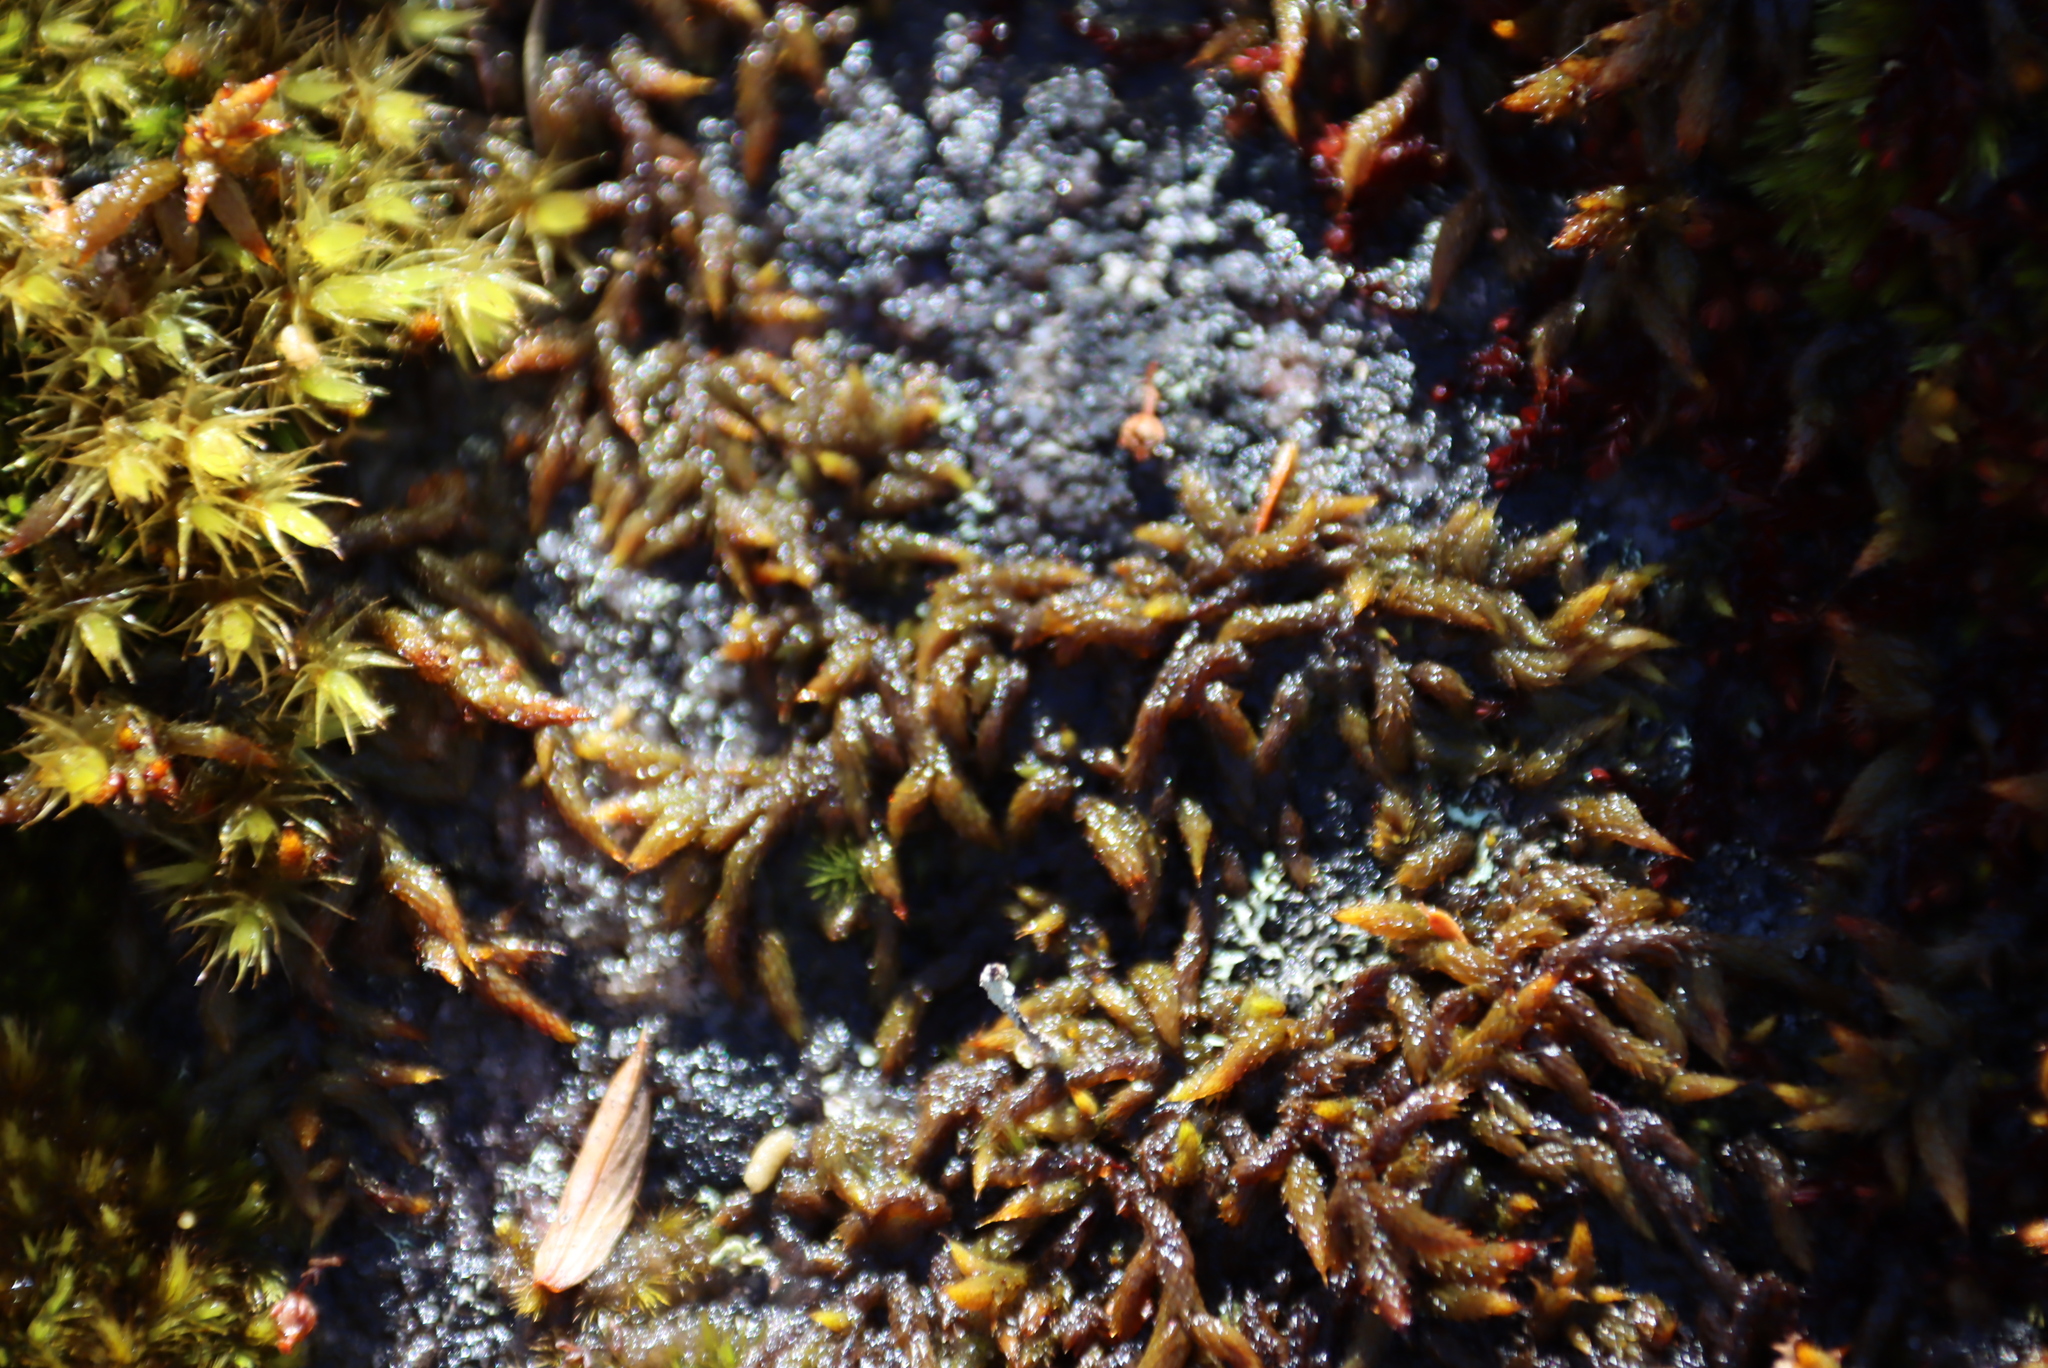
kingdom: Plantae
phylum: Bryophyta
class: Bryopsida
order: Hedwigiales
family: Hedwigiaceae
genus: Rhacocarpus
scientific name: Rhacocarpus purpurascens
